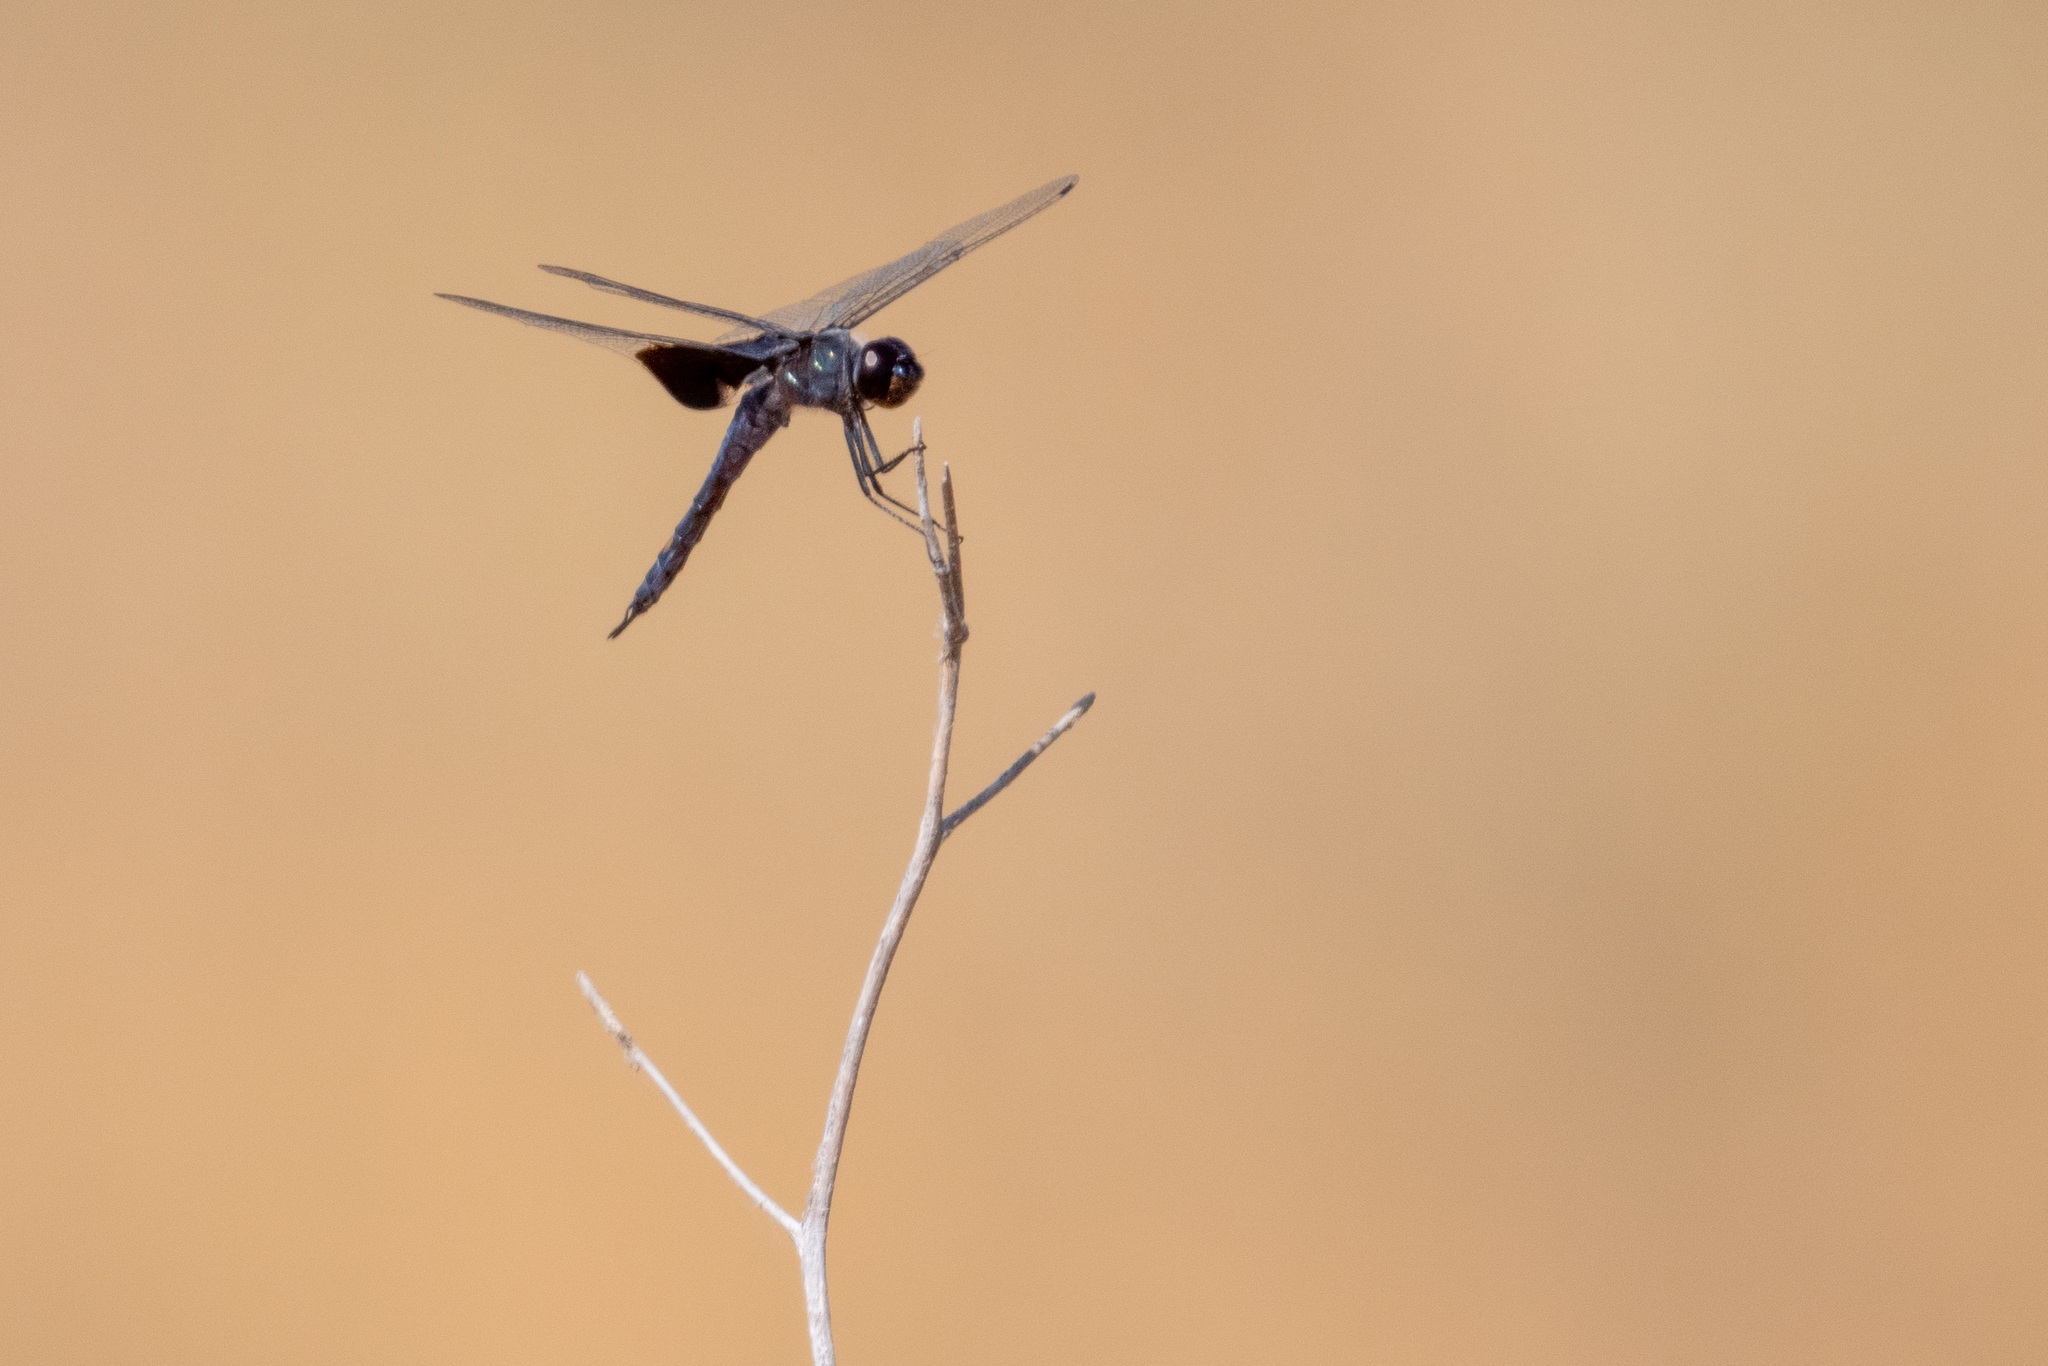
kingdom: Animalia
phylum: Arthropoda
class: Insecta
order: Odonata
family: Libellulidae
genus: Tramea
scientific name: Tramea lacerata
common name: Black saddlebags
